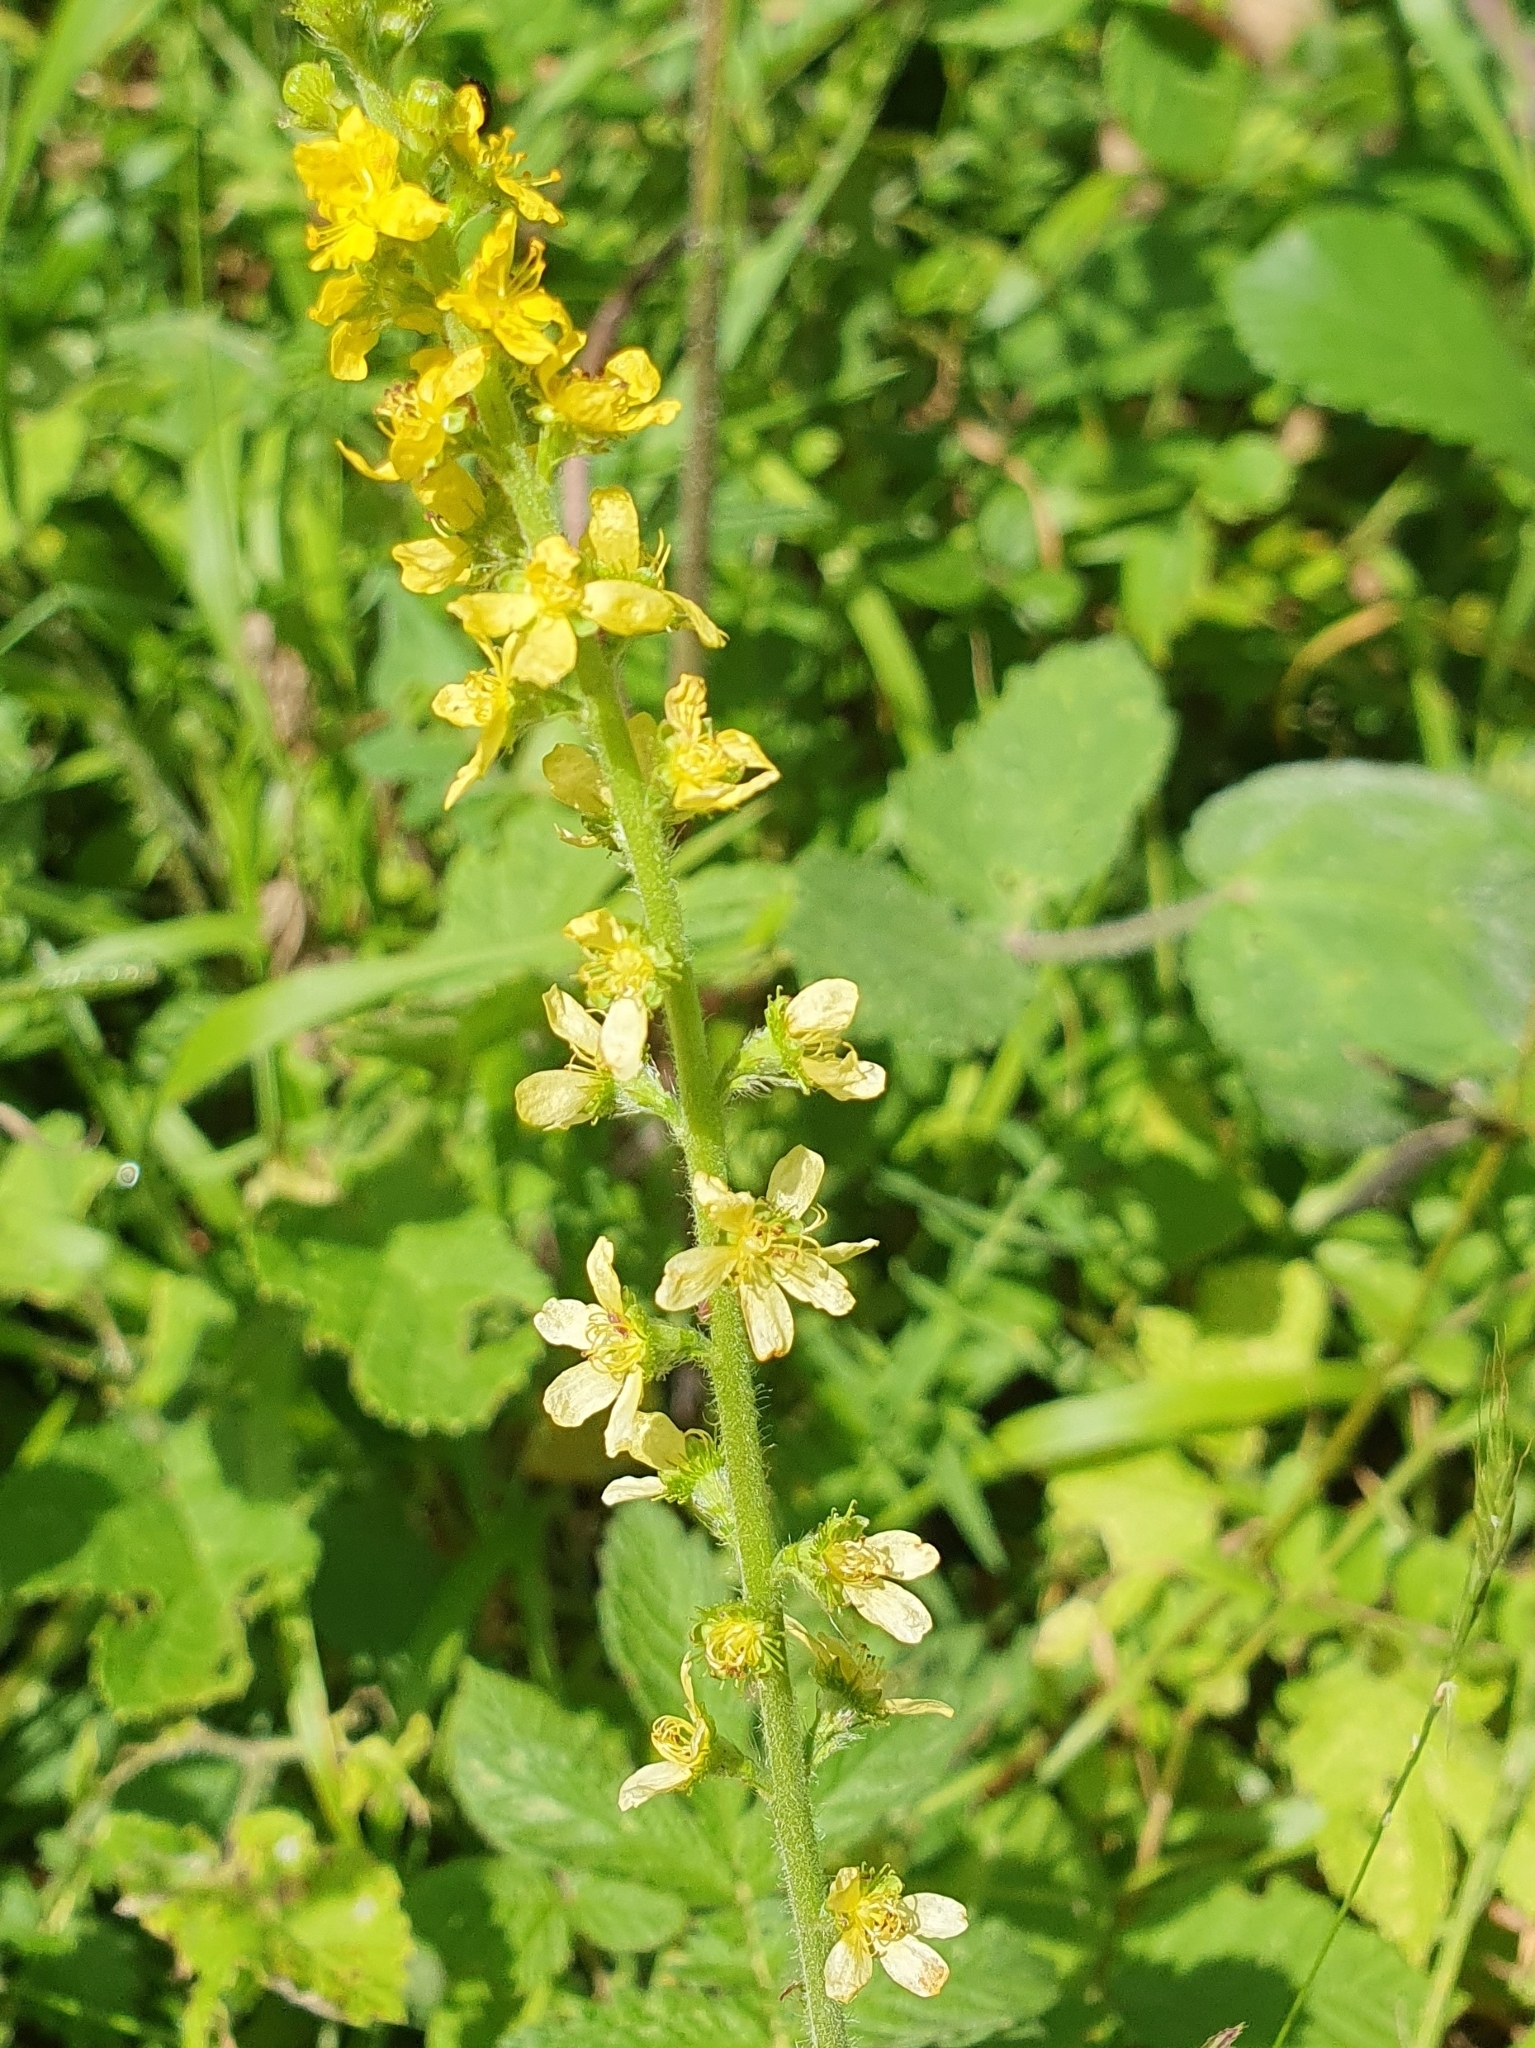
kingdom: Plantae
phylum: Tracheophyta
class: Magnoliopsida
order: Rosales
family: Rosaceae
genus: Agrimonia
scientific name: Agrimonia eupatoria
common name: Agrimony
